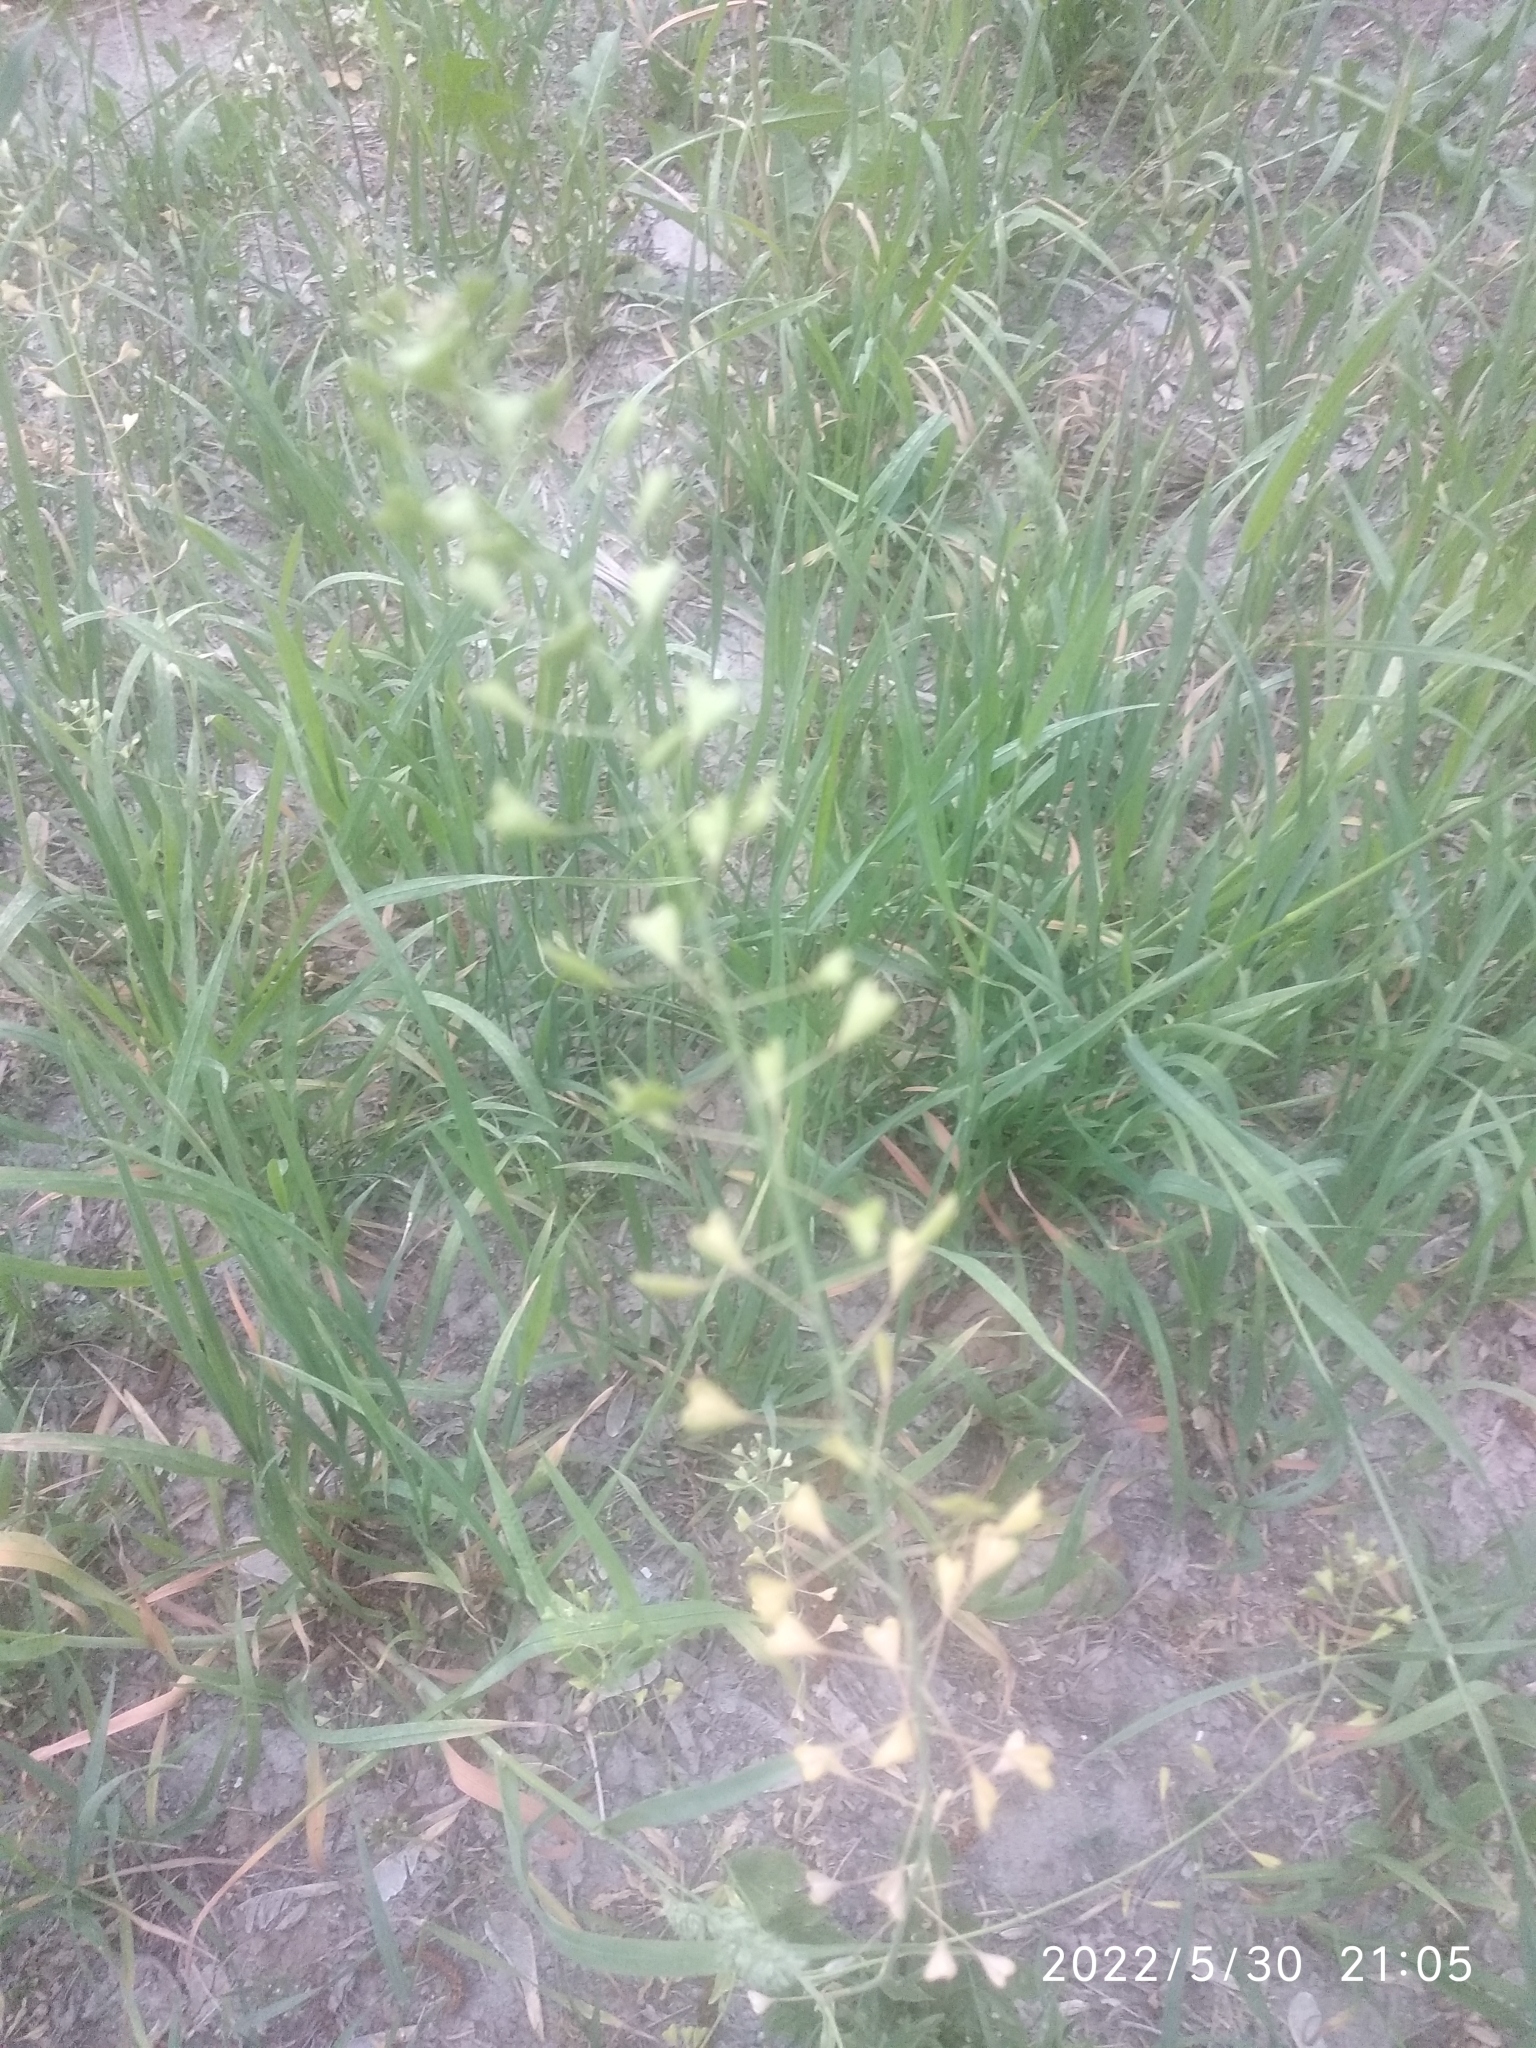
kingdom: Plantae
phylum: Tracheophyta
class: Magnoliopsida
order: Brassicales
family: Brassicaceae
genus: Capsella
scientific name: Capsella bursa-pastoris
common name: Shepherd's purse
